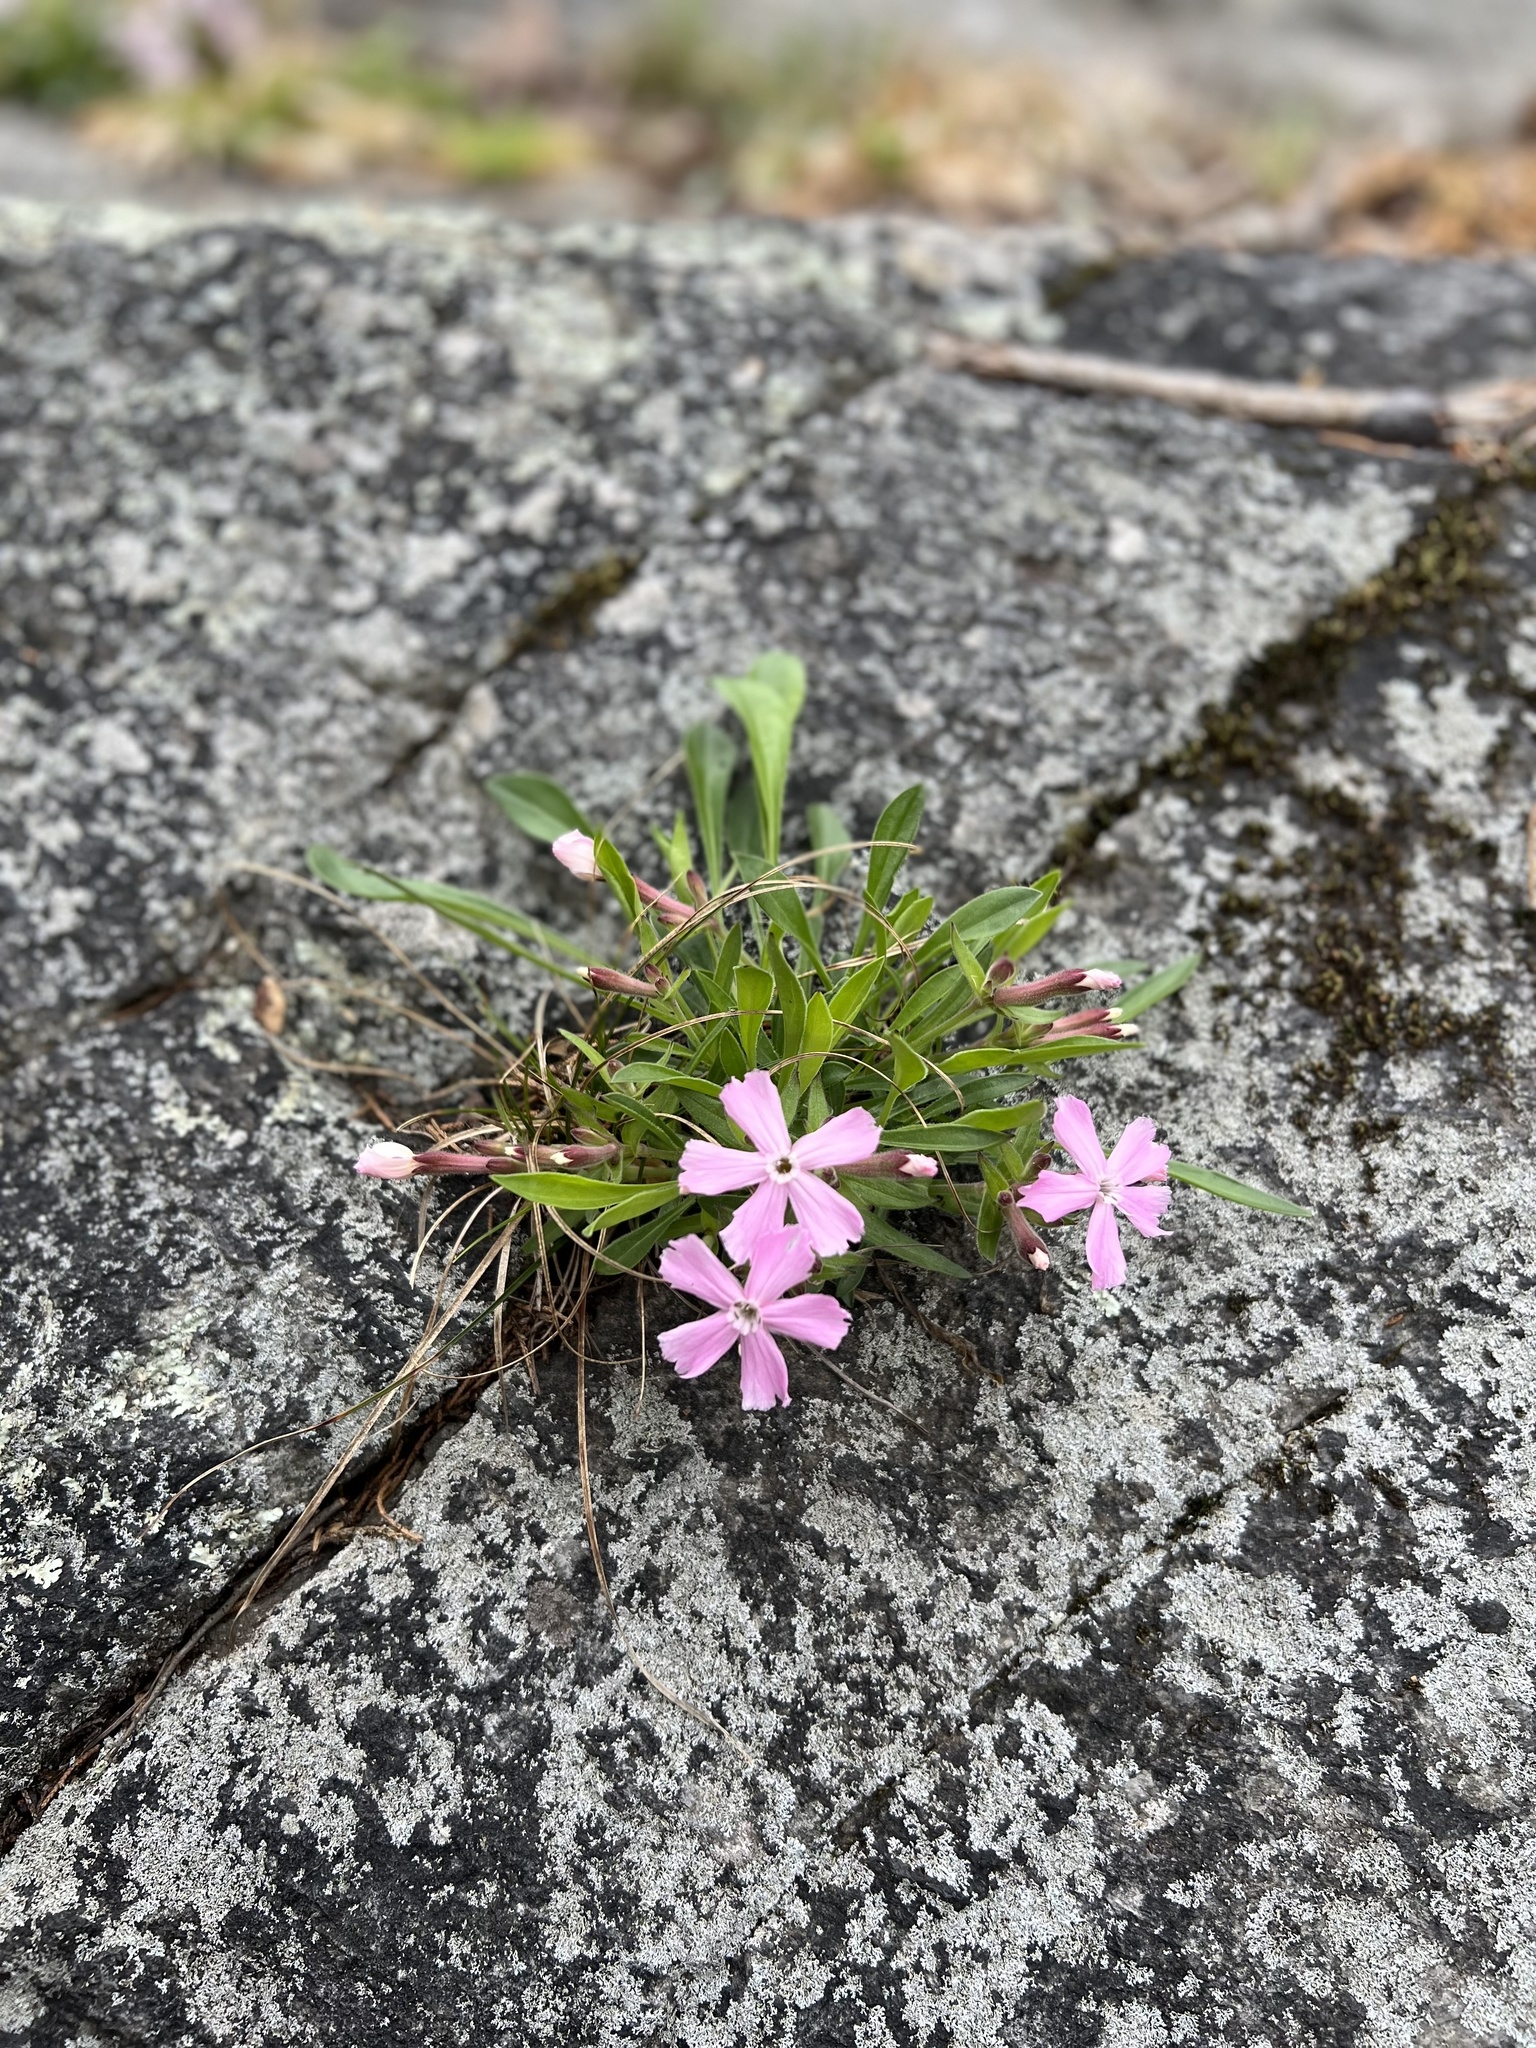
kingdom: Plantae
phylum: Tracheophyta
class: Magnoliopsida
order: Caryophyllales
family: Caryophyllaceae
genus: Silene
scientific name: Silene caroliniana
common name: Sticky catchfly
